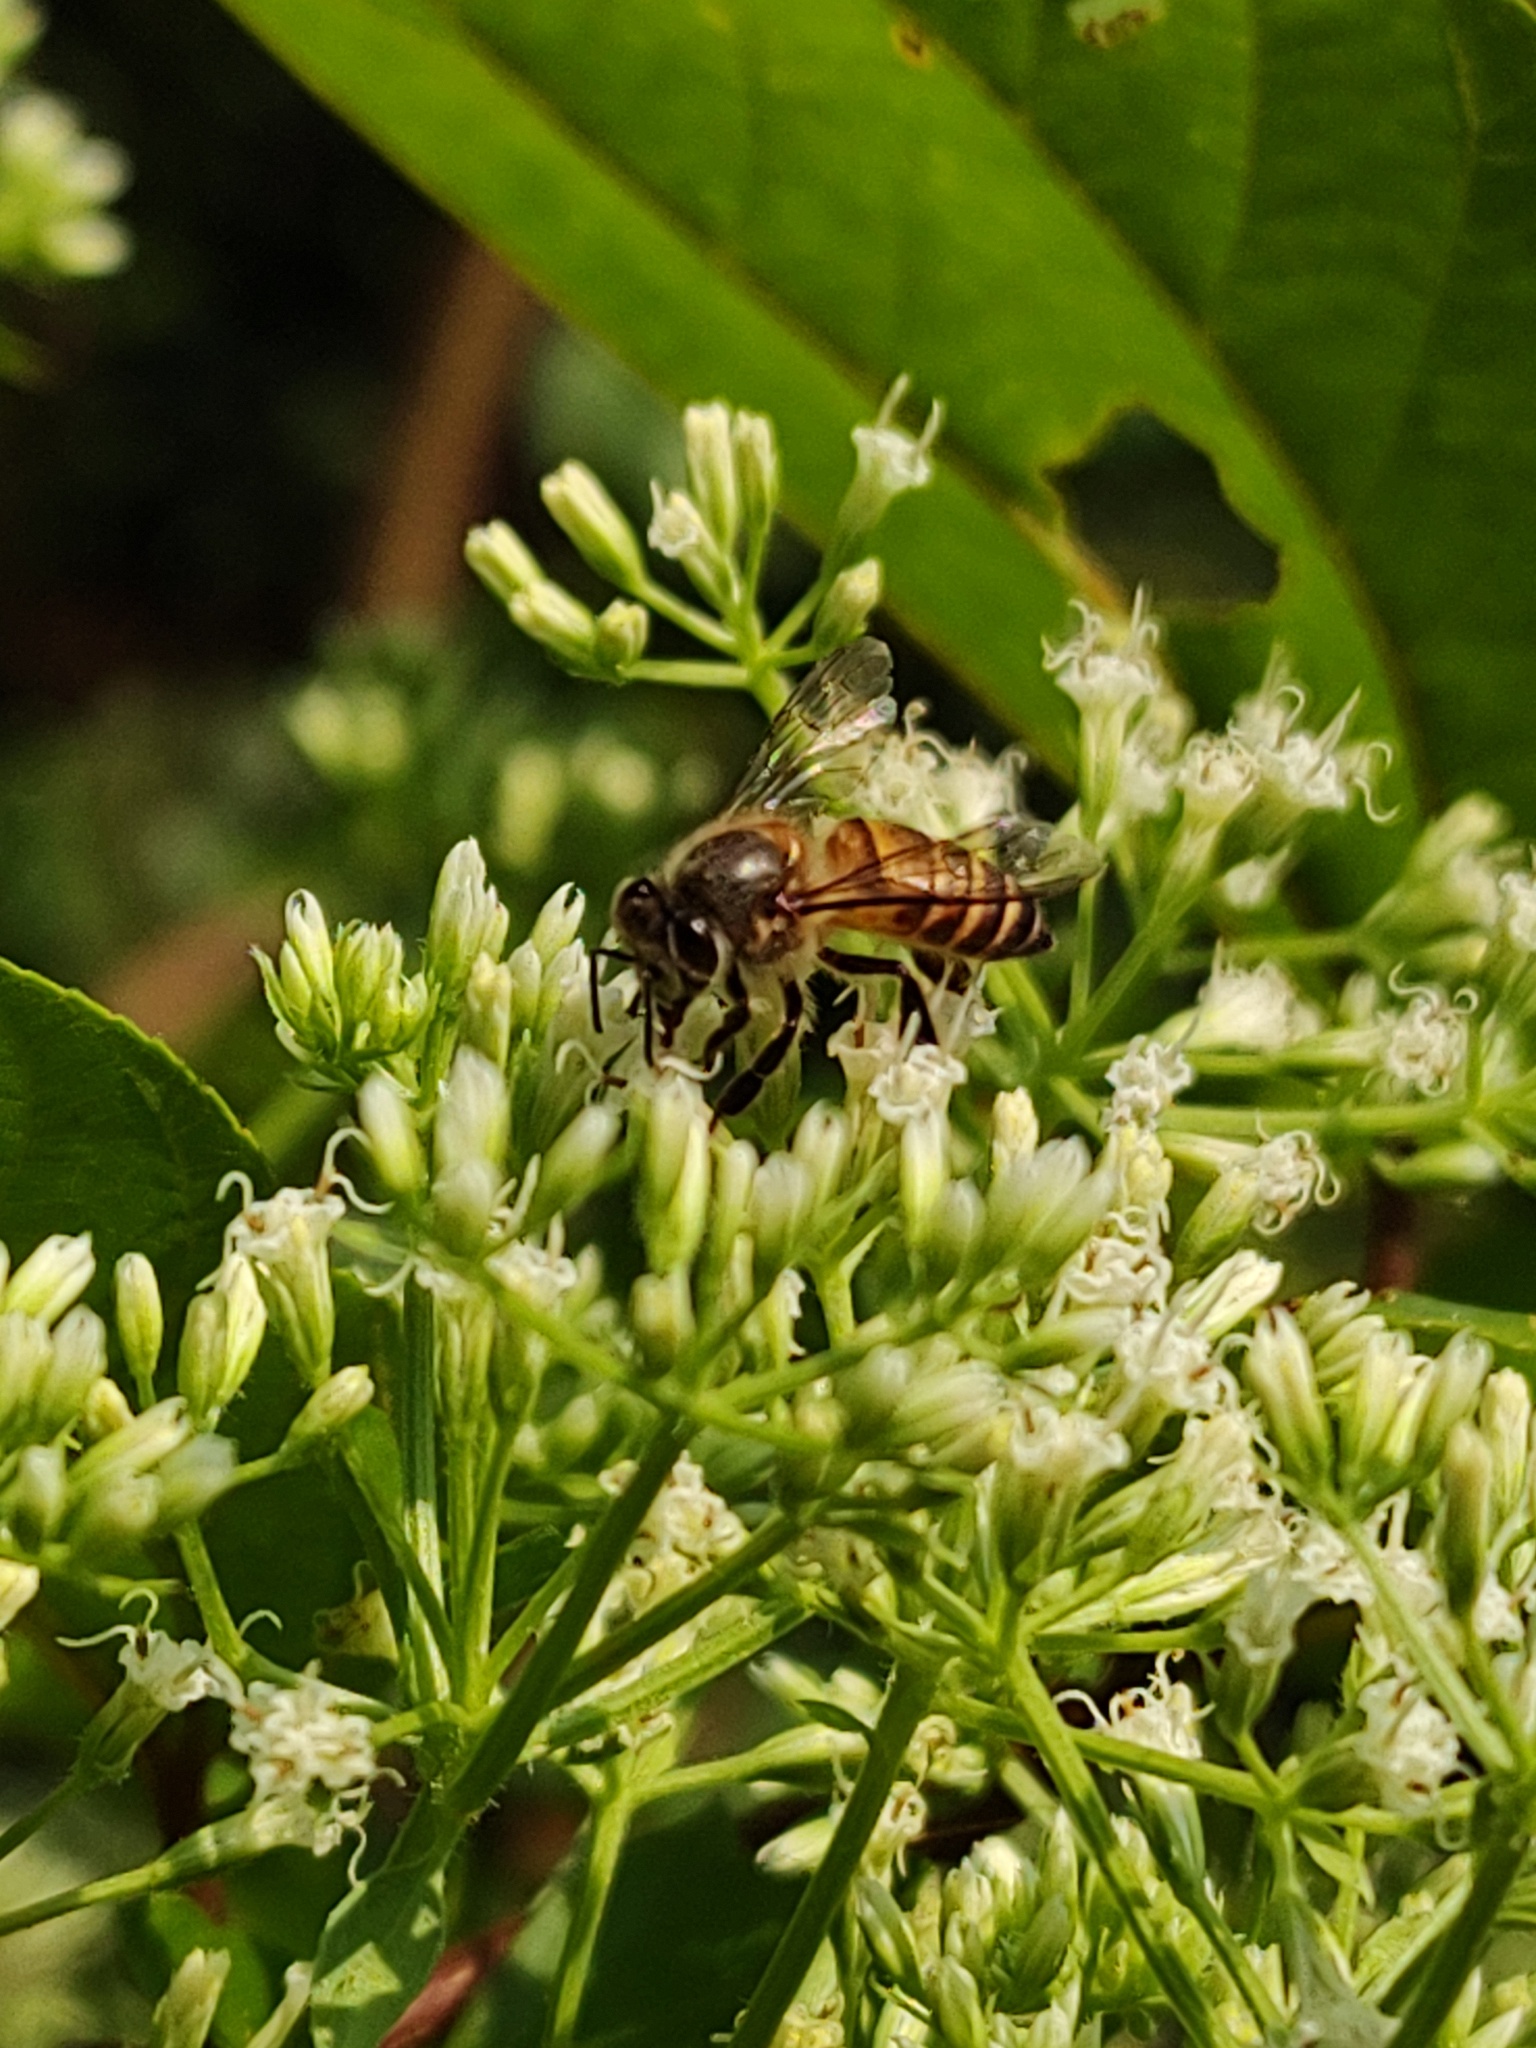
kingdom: Animalia
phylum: Arthropoda
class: Insecta
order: Hymenoptera
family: Apidae
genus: Apis
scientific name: Apis cerana
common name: Honey bee
